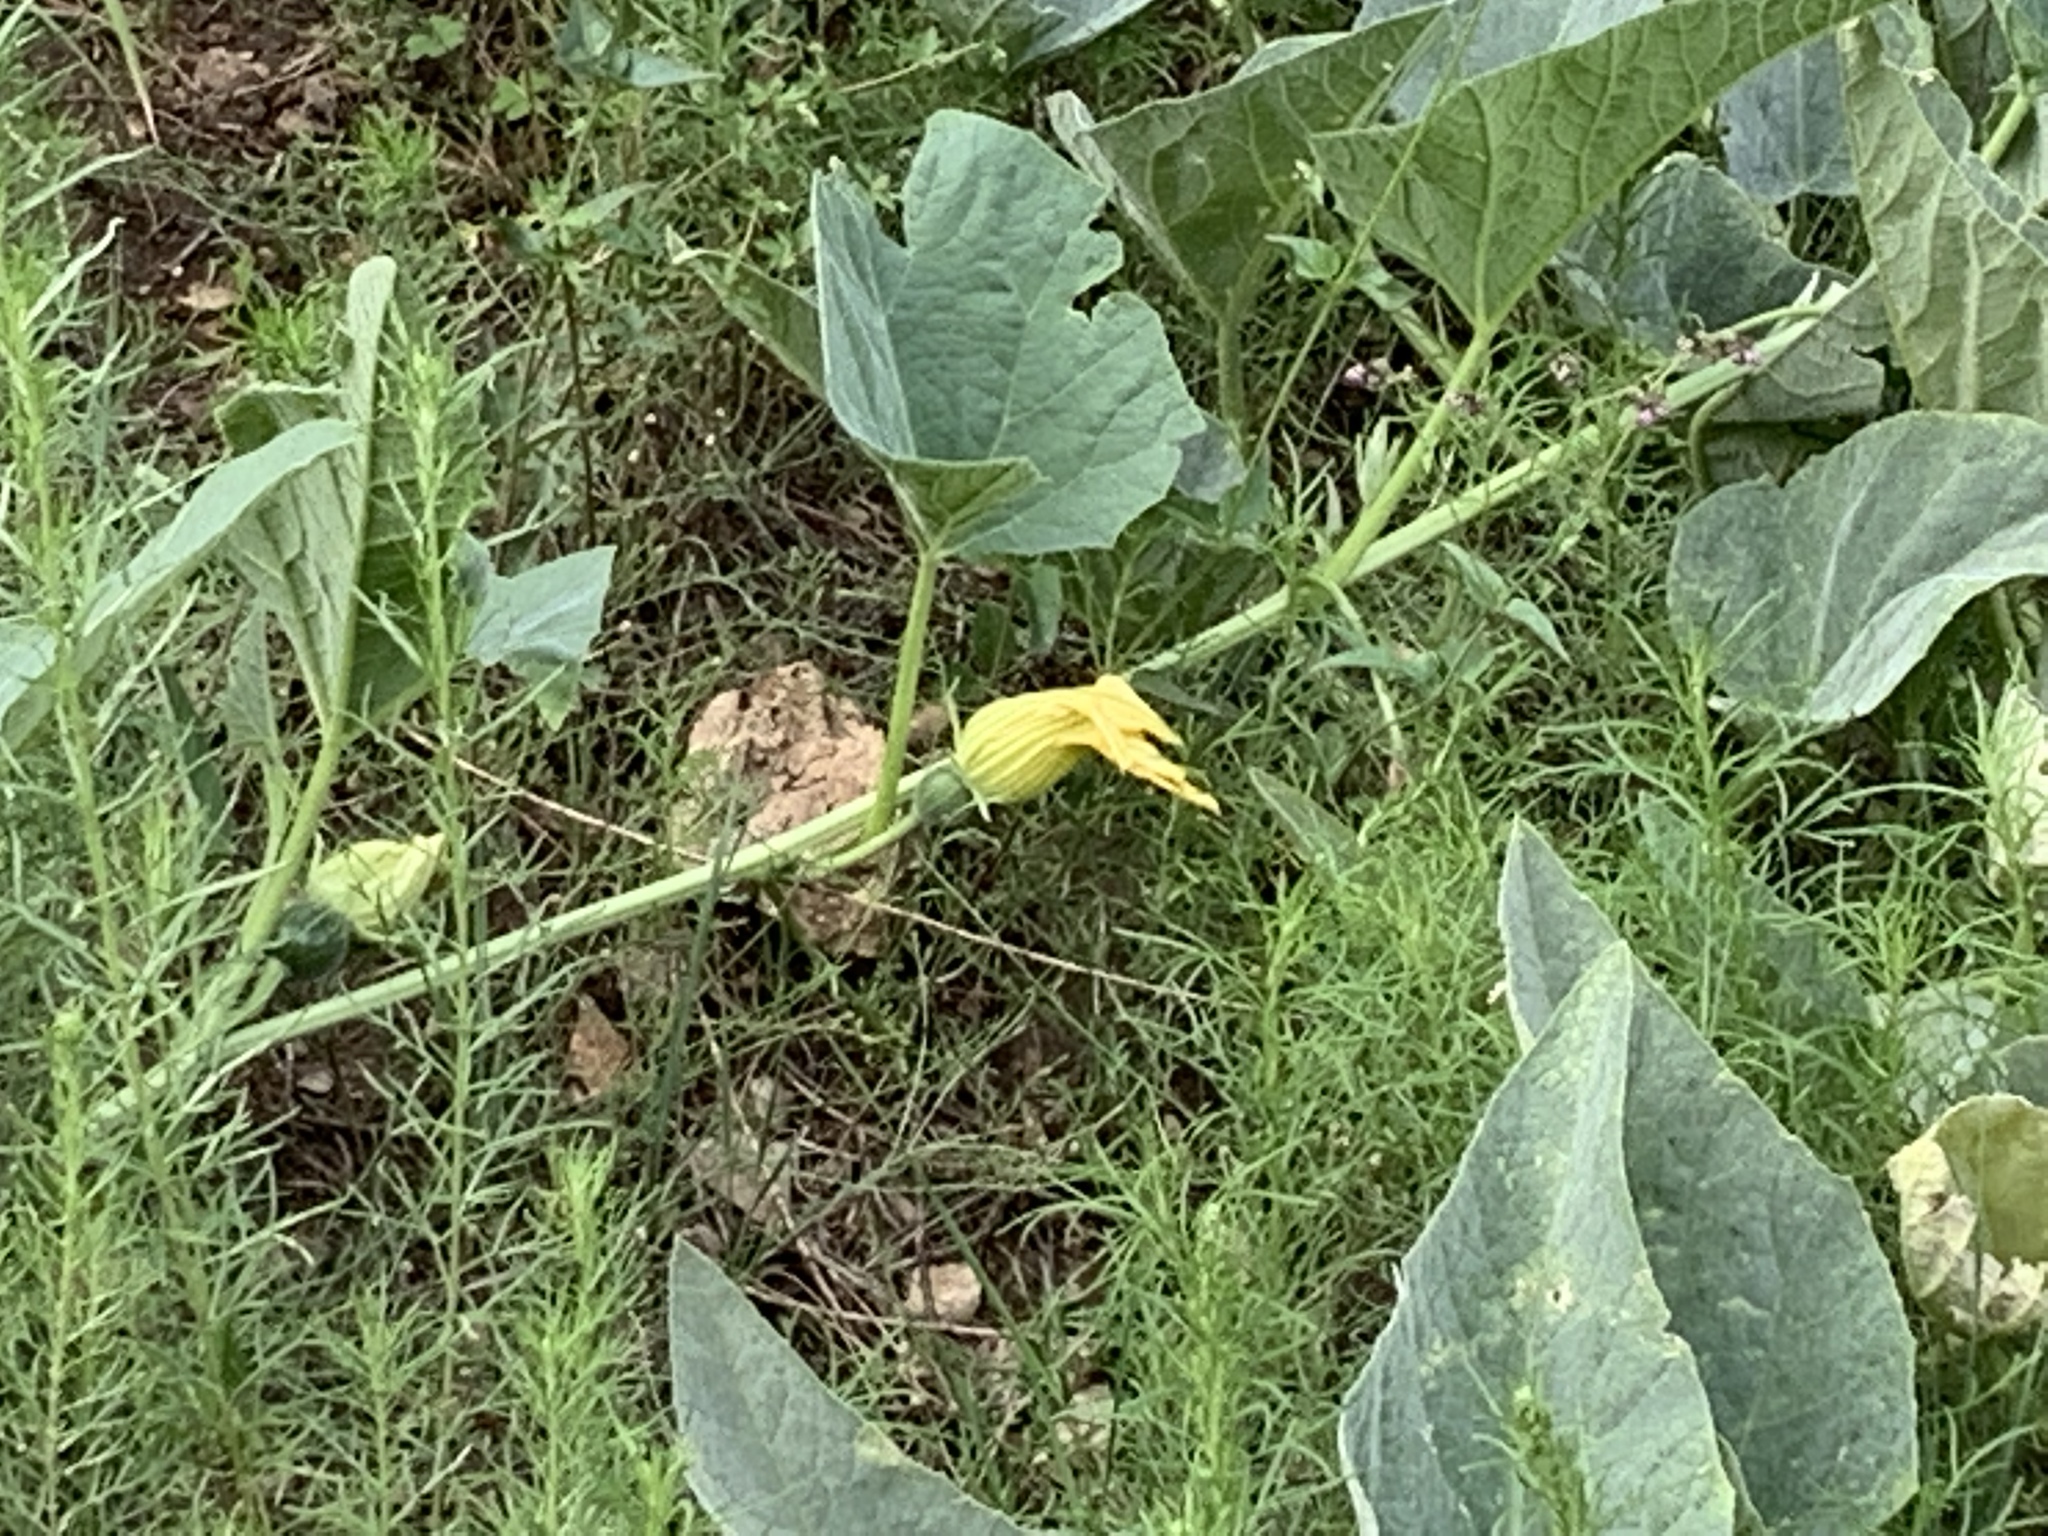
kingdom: Plantae
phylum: Tracheophyta
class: Magnoliopsida
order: Cucurbitales
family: Cucurbitaceae
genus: Cucurbita
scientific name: Cucurbita foetidissima
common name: Buffalo gourd
